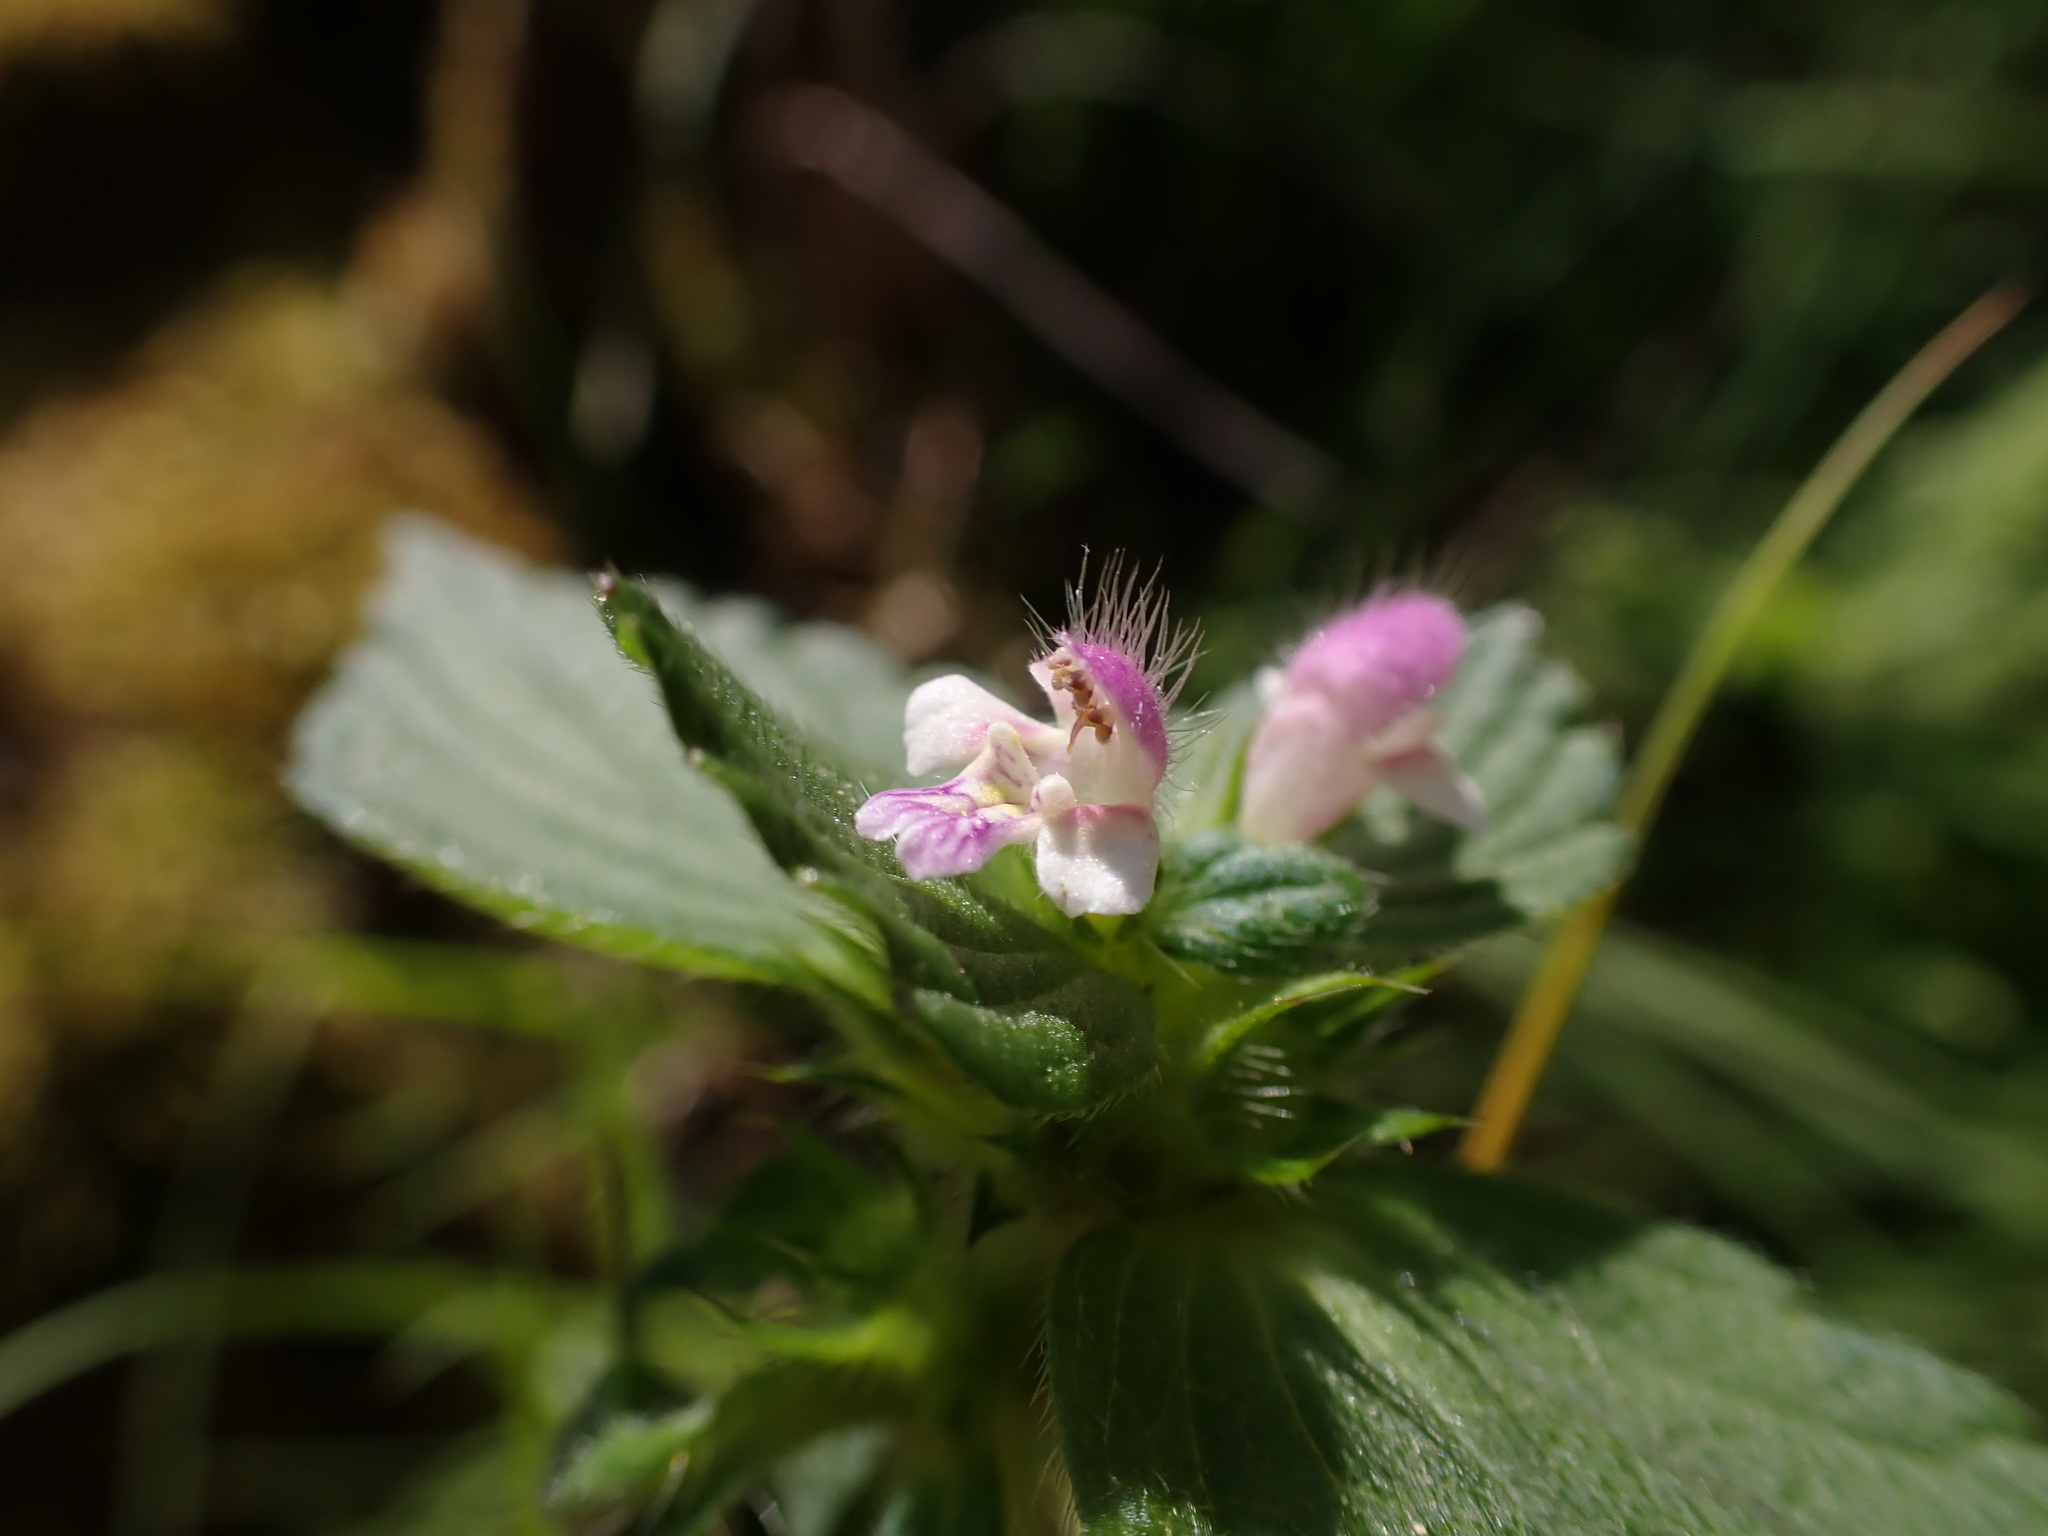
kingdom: Plantae
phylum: Tracheophyta
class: Magnoliopsida
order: Lamiales
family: Lamiaceae
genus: Galeopsis
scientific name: Galeopsis bifida
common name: Bifid hemp-nettle
